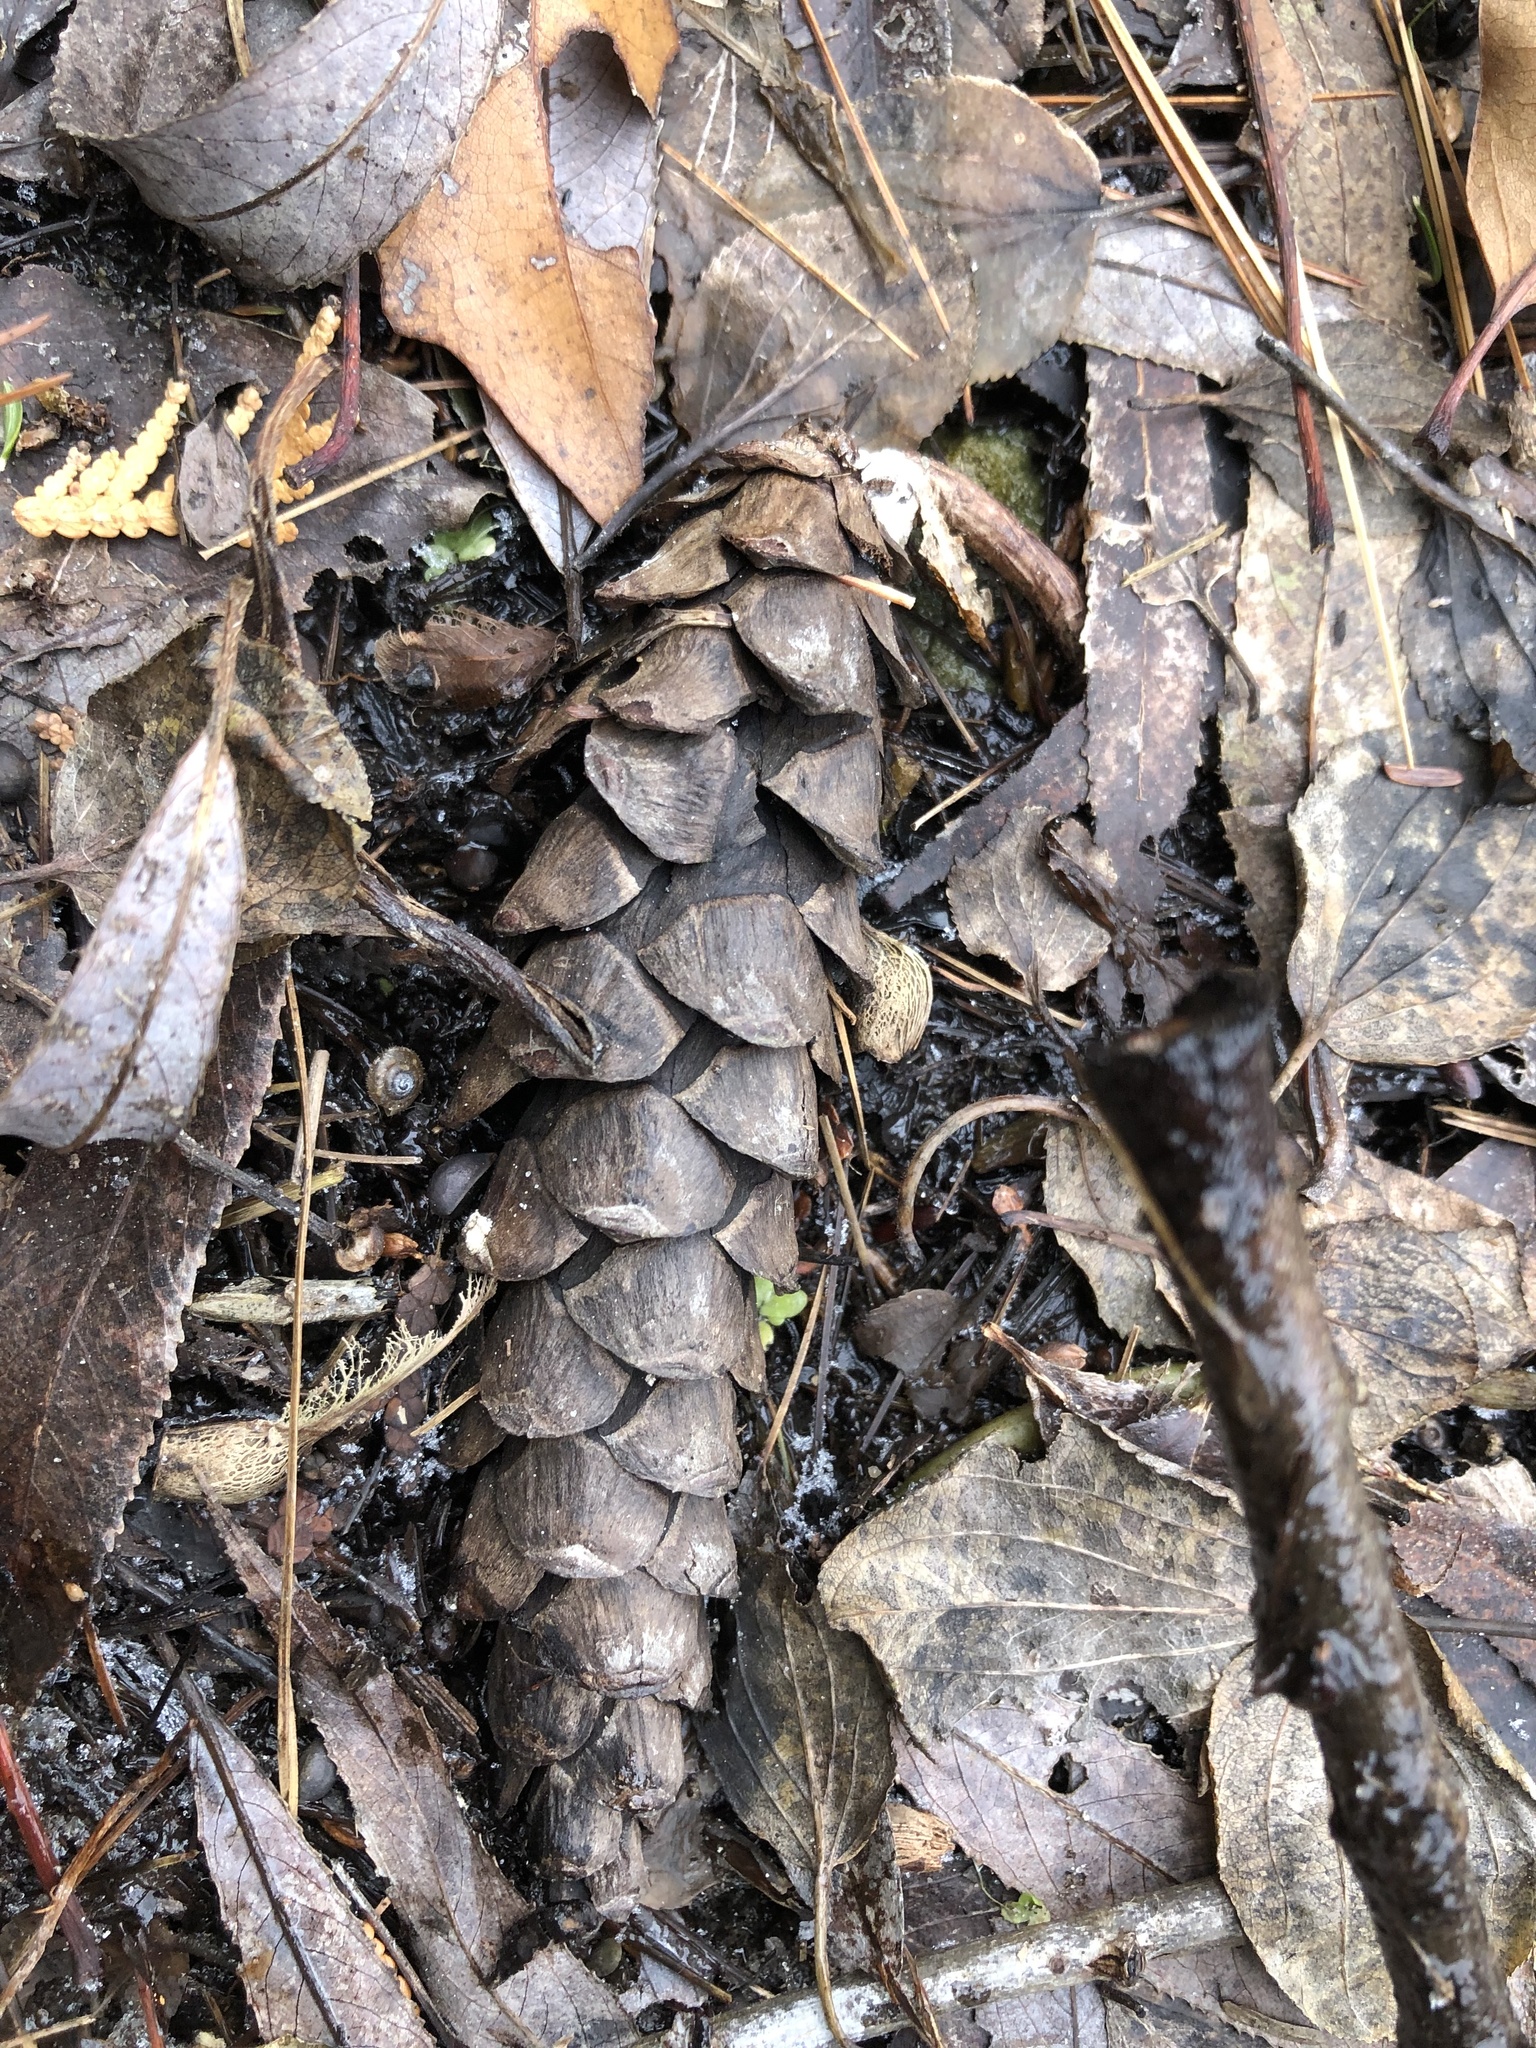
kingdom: Plantae
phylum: Tracheophyta
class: Pinopsida
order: Pinales
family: Pinaceae
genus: Pinus
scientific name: Pinus strobus
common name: Weymouth pine
